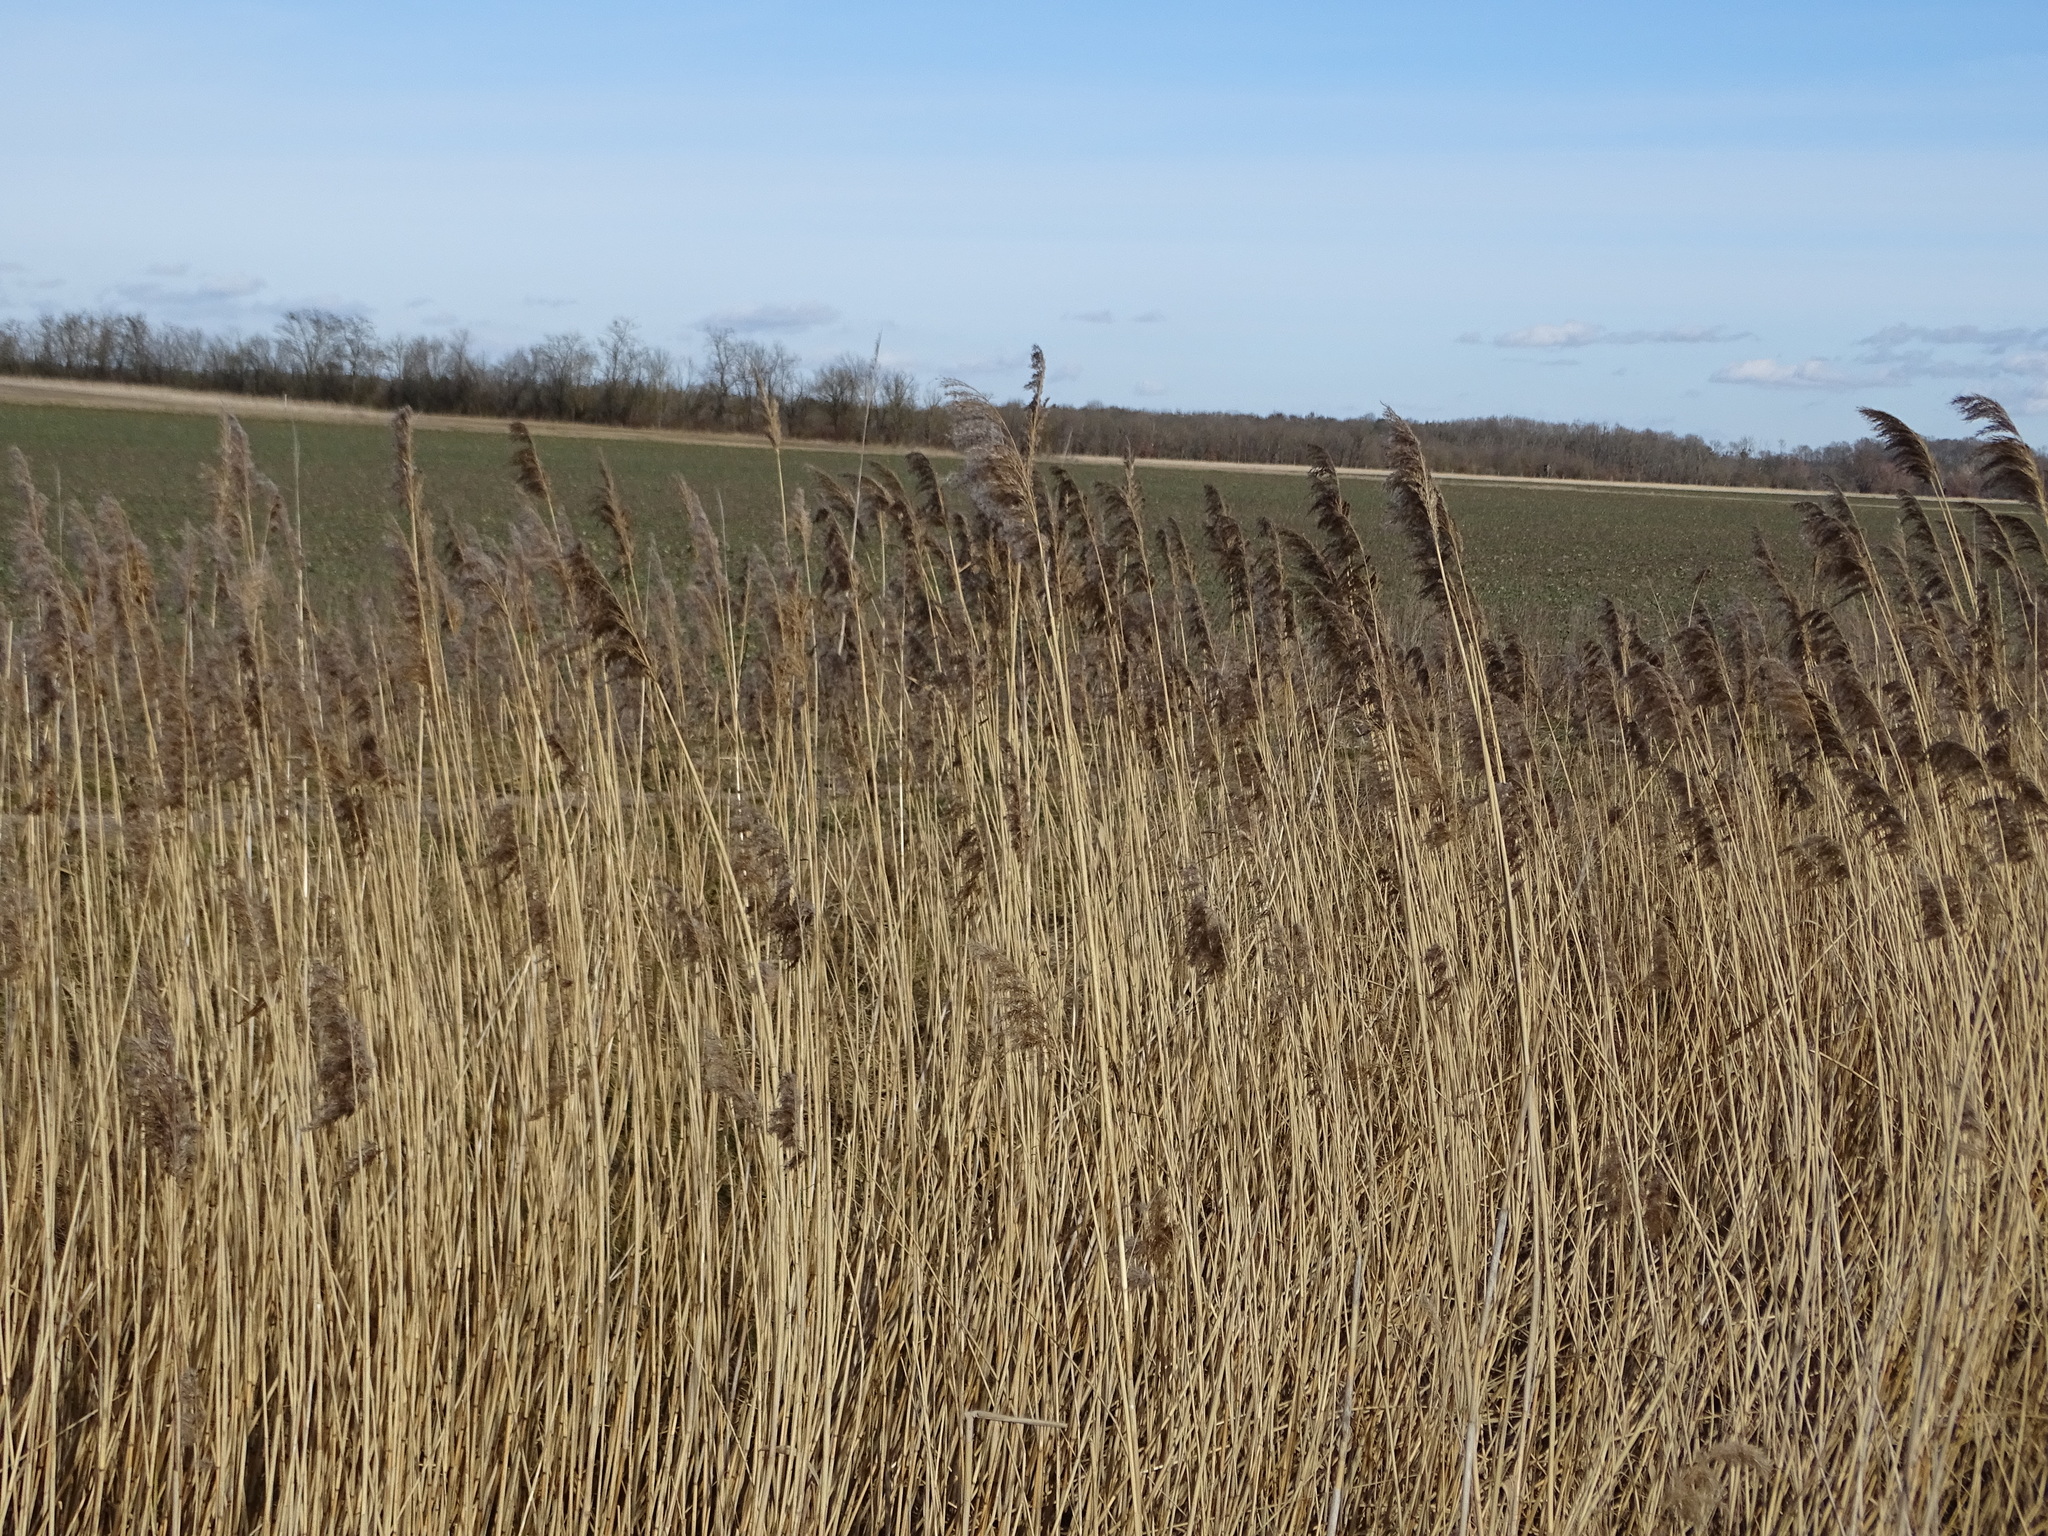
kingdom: Plantae
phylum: Tracheophyta
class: Liliopsida
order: Poales
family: Poaceae
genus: Phragmites
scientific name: Phragmites australis
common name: Common reed
